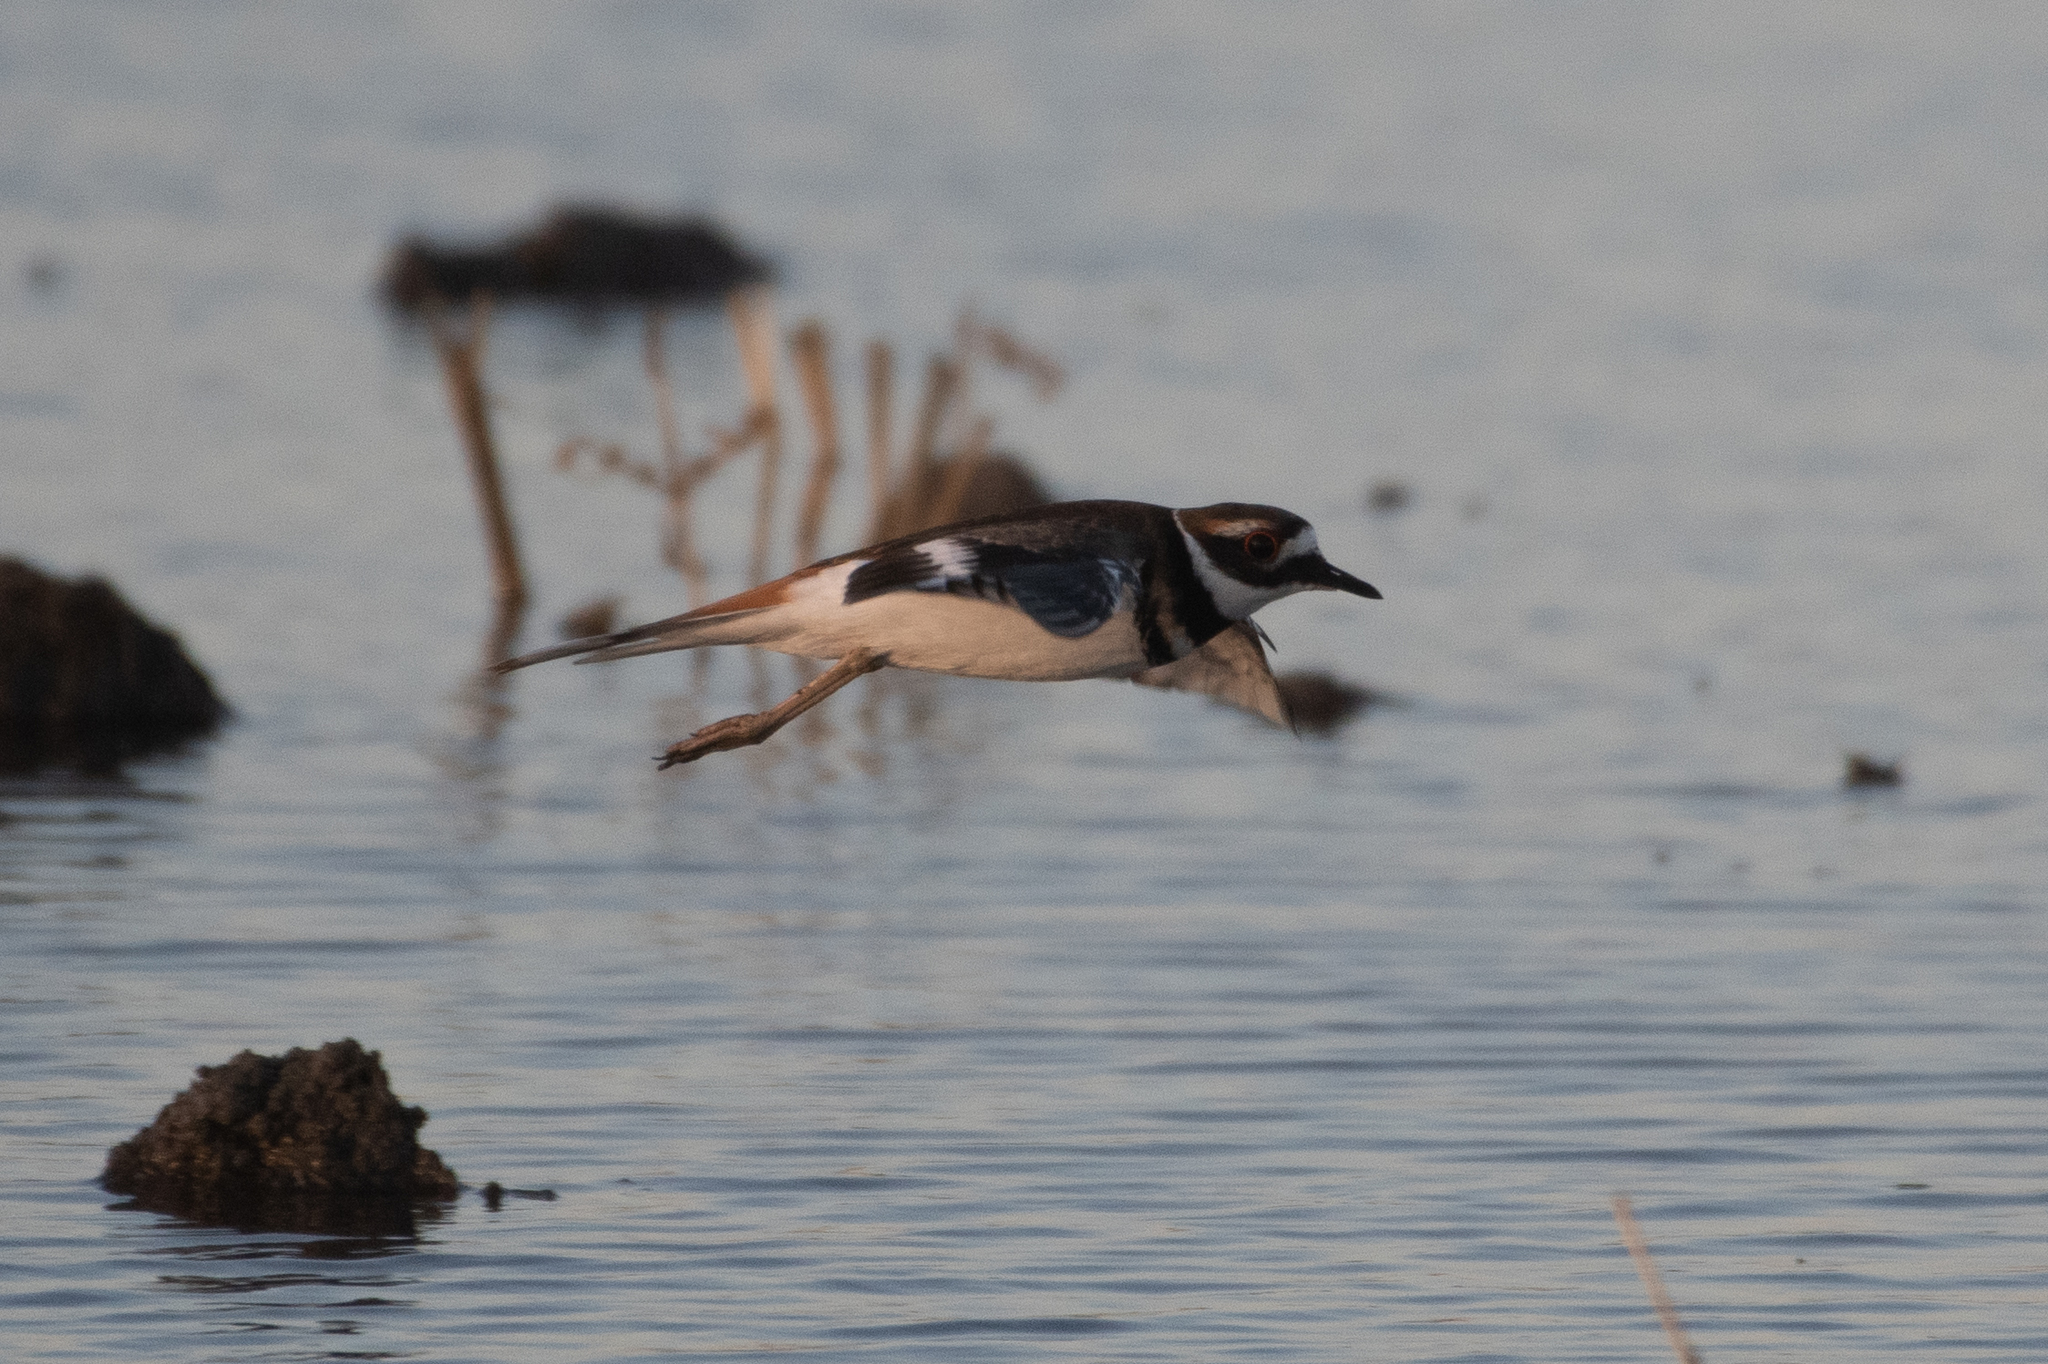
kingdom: Animalia
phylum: Chordata
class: Aves
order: Charadriiformes
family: Charadriidae
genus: Charadrius
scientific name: Charadrius vociferus
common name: Killdeer
